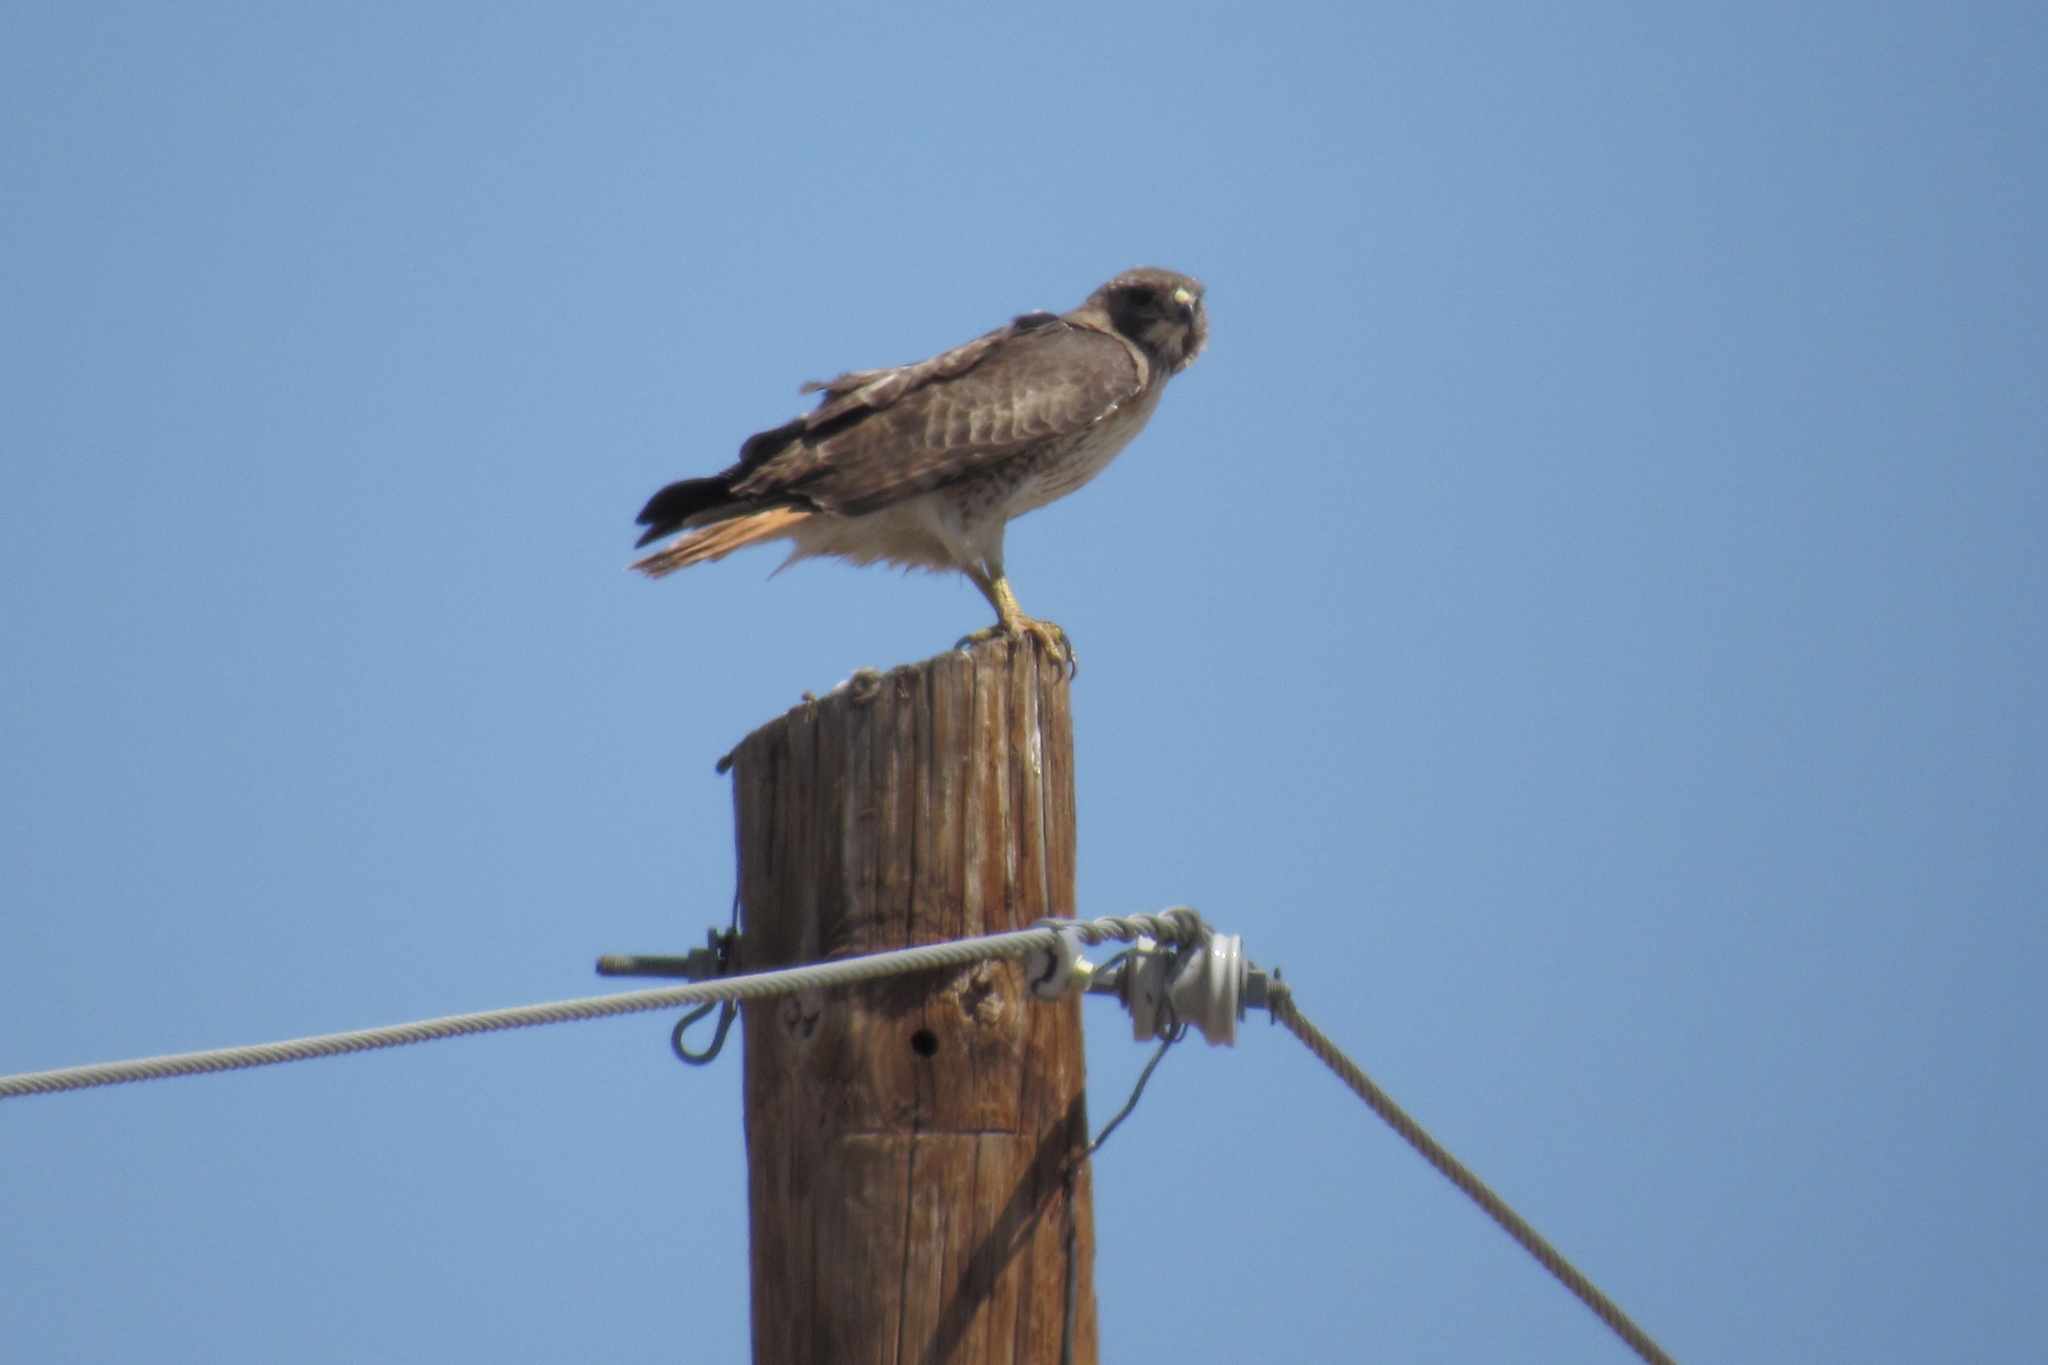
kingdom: Animalia
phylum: Chordata
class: Aves
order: Accipitriformes
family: Accipitridae
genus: Buteo
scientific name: Buteo jamaicensis
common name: Red-tailed hawk
